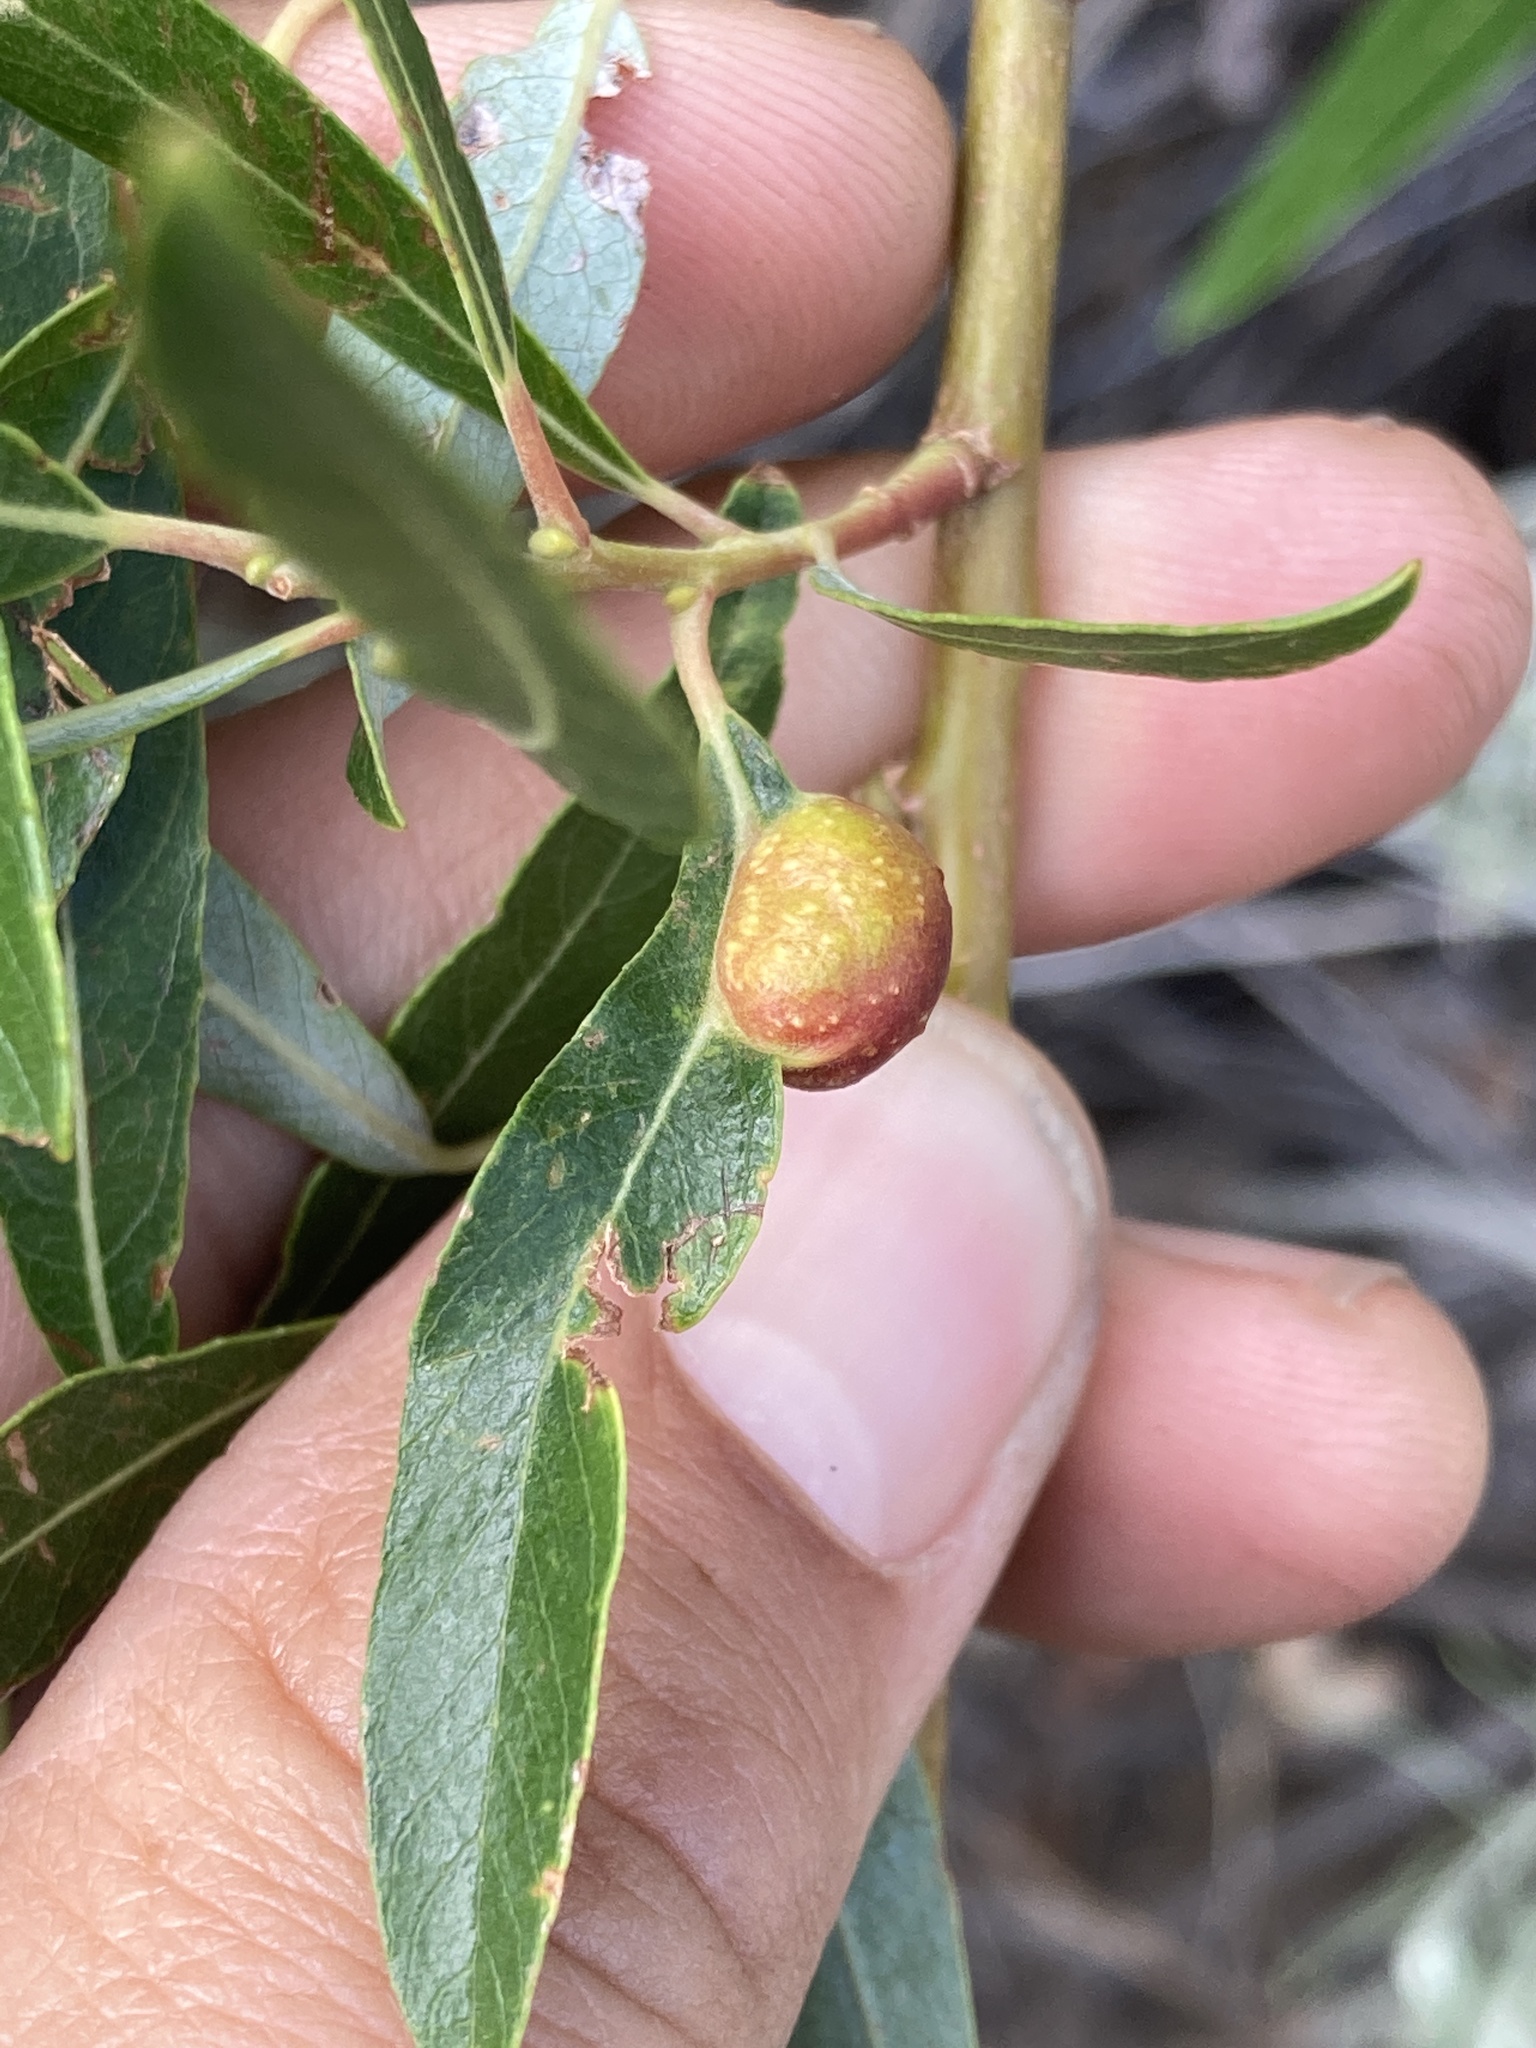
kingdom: Animalia
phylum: Arthropoda
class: Insecta
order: Hymenoptera
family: Tenthredinidae
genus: Euura
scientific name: Euura
